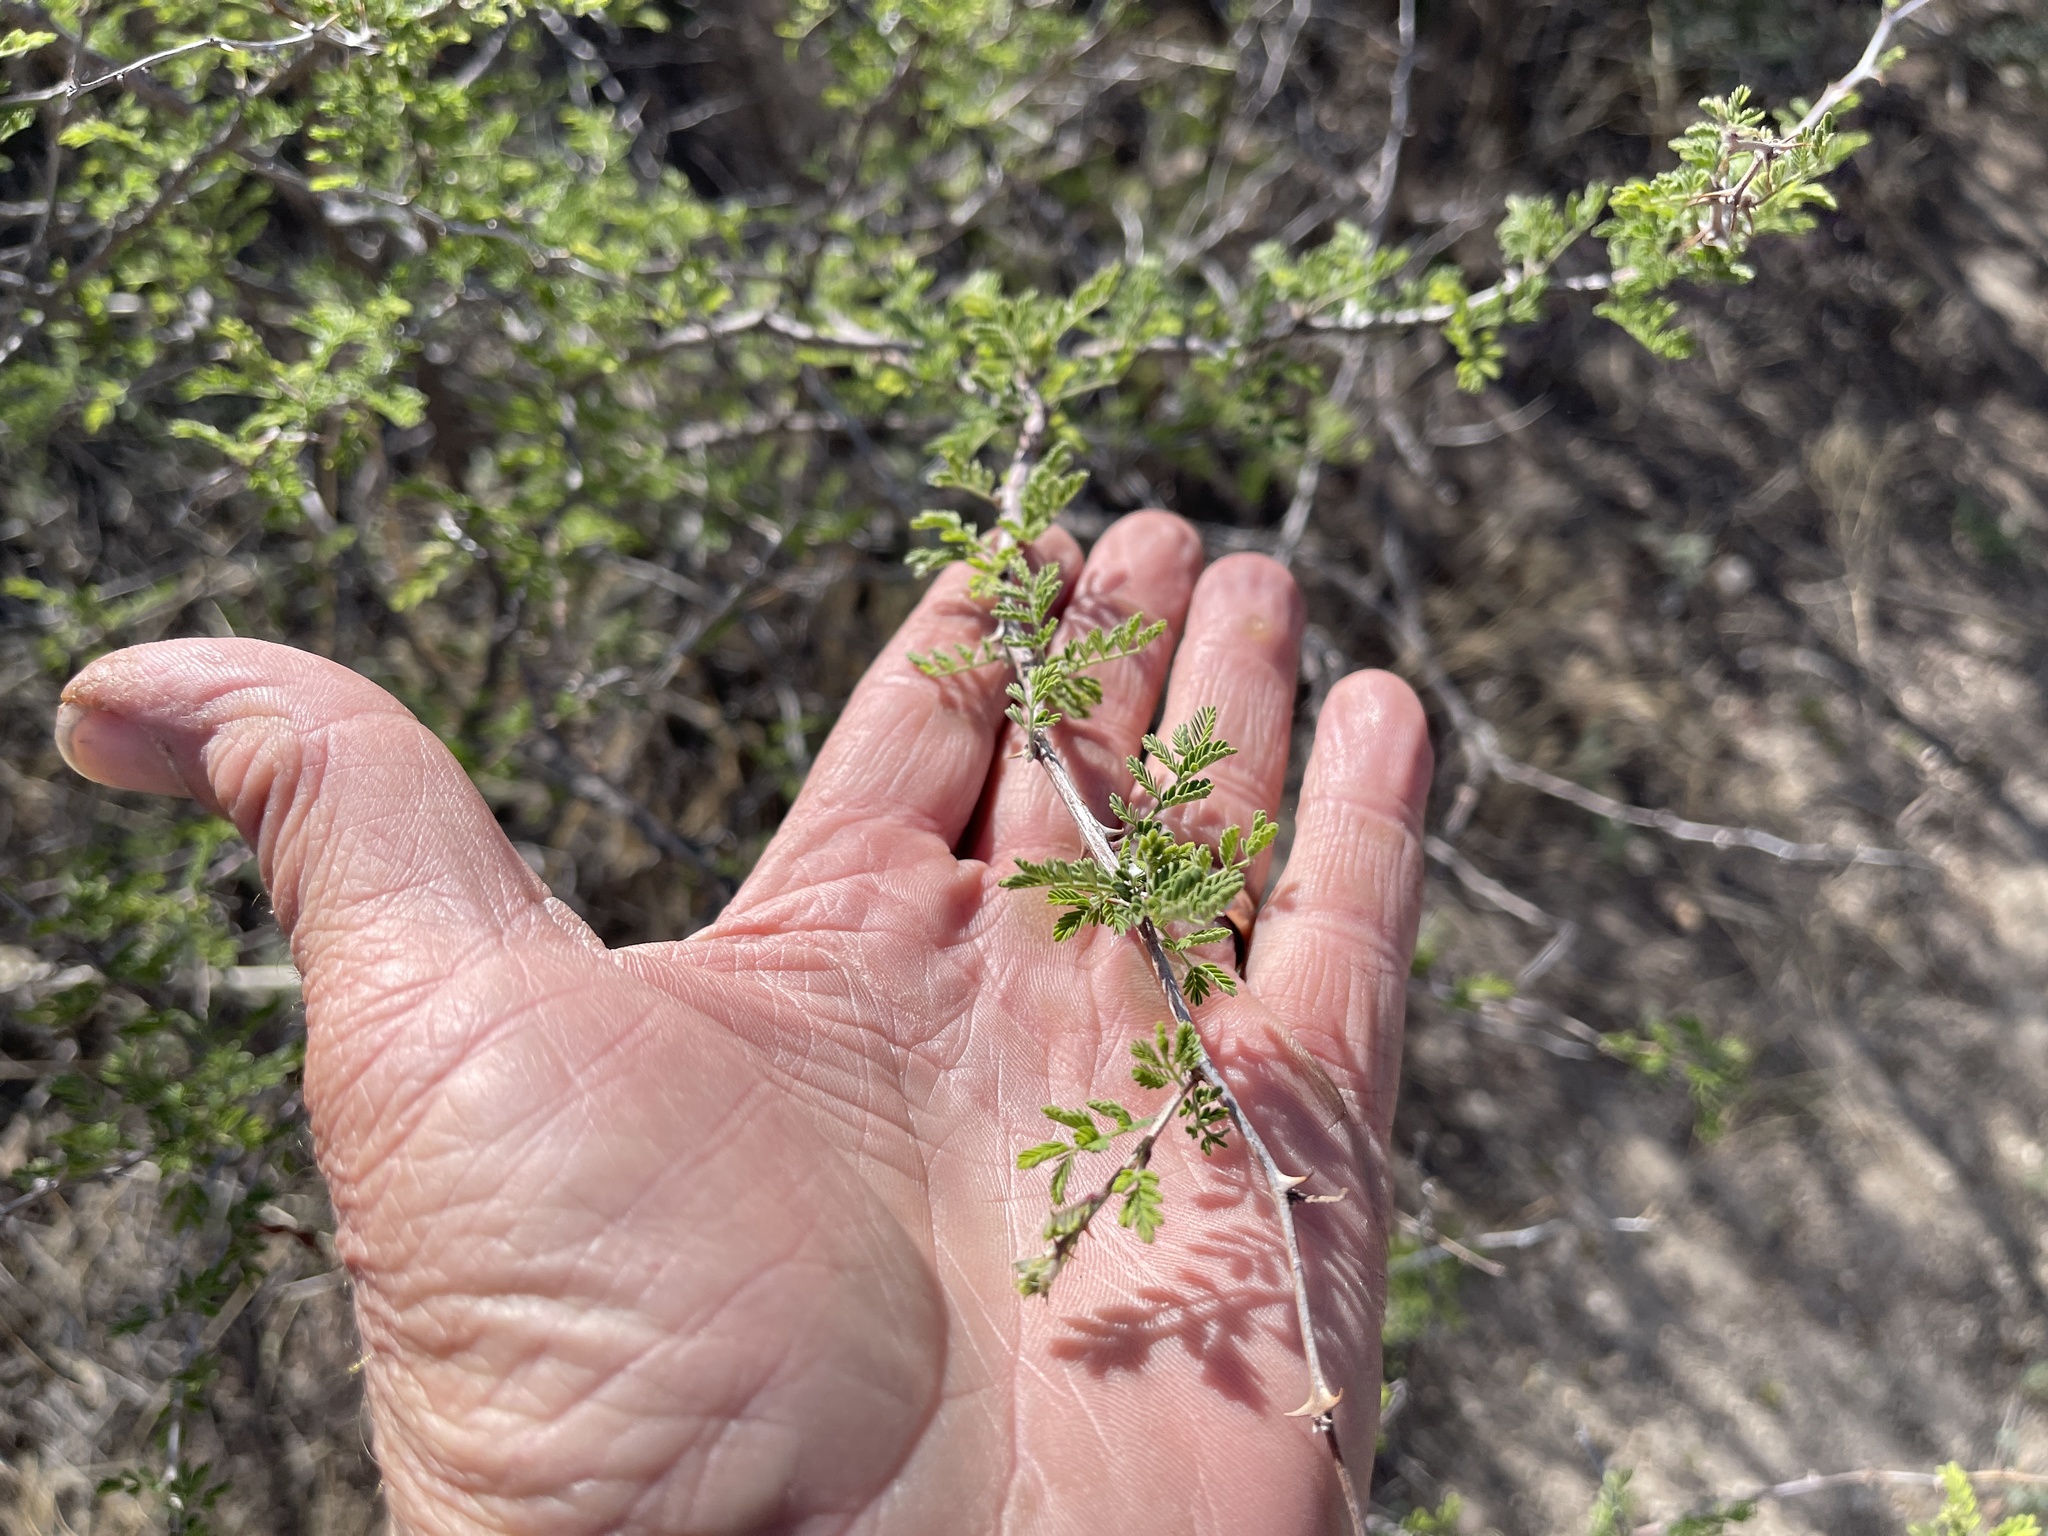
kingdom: Plantae
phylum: Tracheophyta
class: Magnoliopsida
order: Fabales
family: Fabaceae
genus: Senegalia
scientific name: Senegalia greggii
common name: Texas-mimosa
